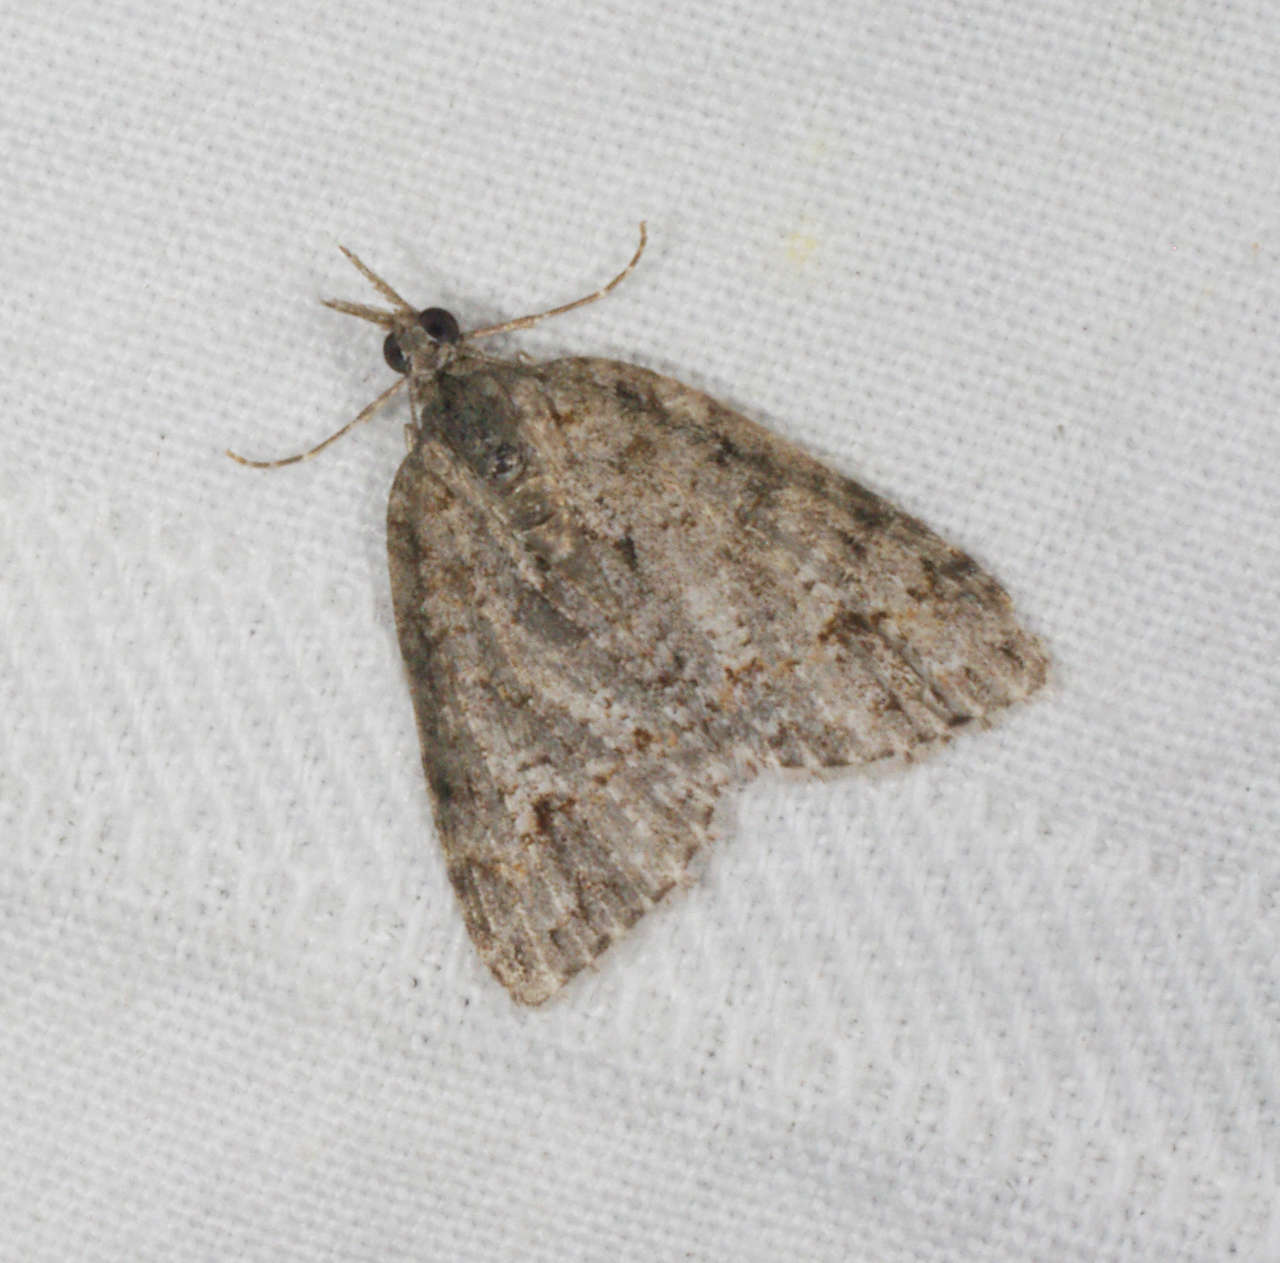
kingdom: Animalia
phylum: Arthropoda
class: Insecta
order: Lepidoptera
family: Geometridae
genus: Microdes
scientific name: Microdes villosata
